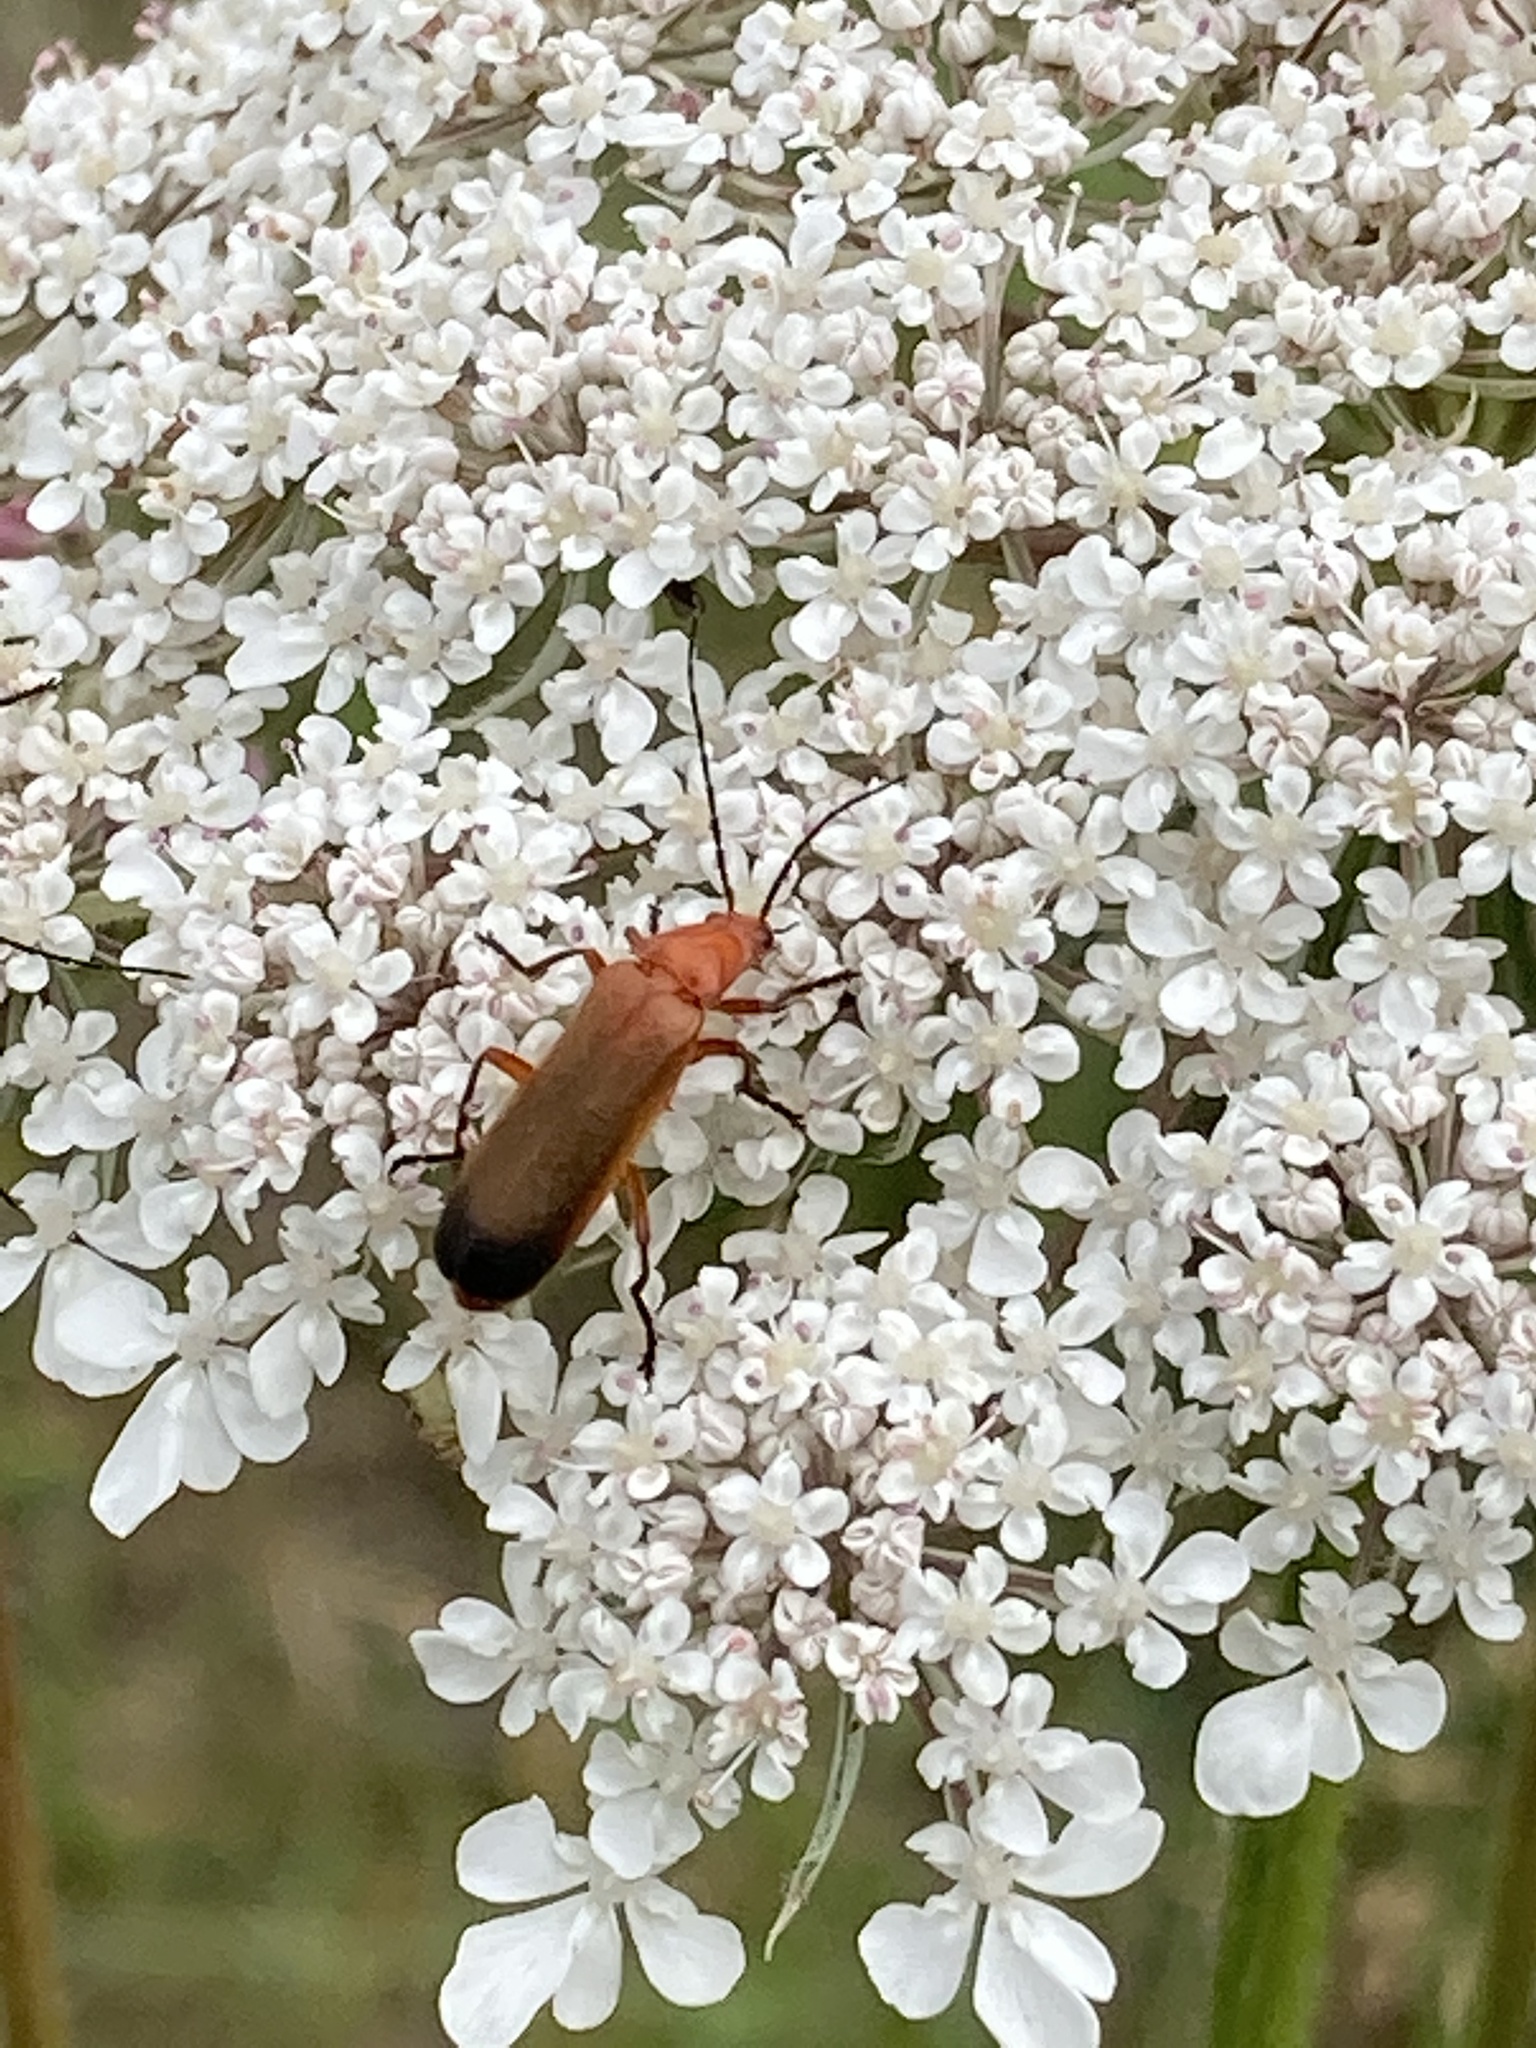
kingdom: Animalia
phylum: Arthropoda
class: Insecta
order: Coleoptera
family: Cantharidae
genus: Rhagonycha
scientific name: Rhagonycha fulva
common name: Common red soldier beetle
